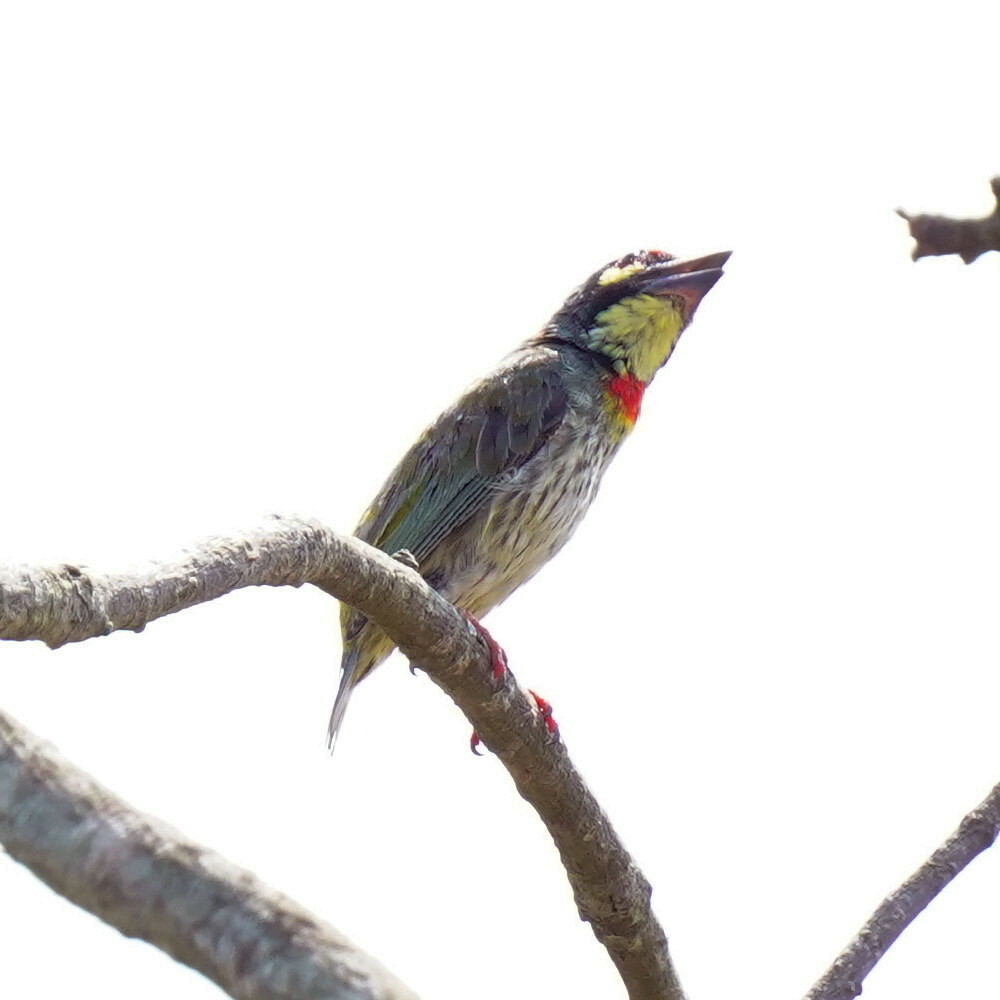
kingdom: Animalia
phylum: Chordata
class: Aves
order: Piciformes
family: Megalaimidae
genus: Psilopogon
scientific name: Psilopogon haemacephalus
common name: Coppersmith barbet
